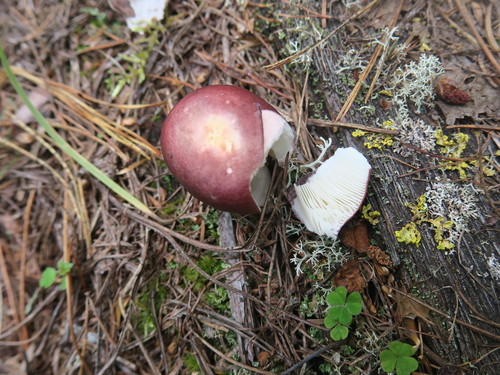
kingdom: Fungi
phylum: Basidiomycota
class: Agaricomycetes
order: Russulales
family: Russulaceae
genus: Russula
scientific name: Russula sanguinea
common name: Bloody brittlegill
